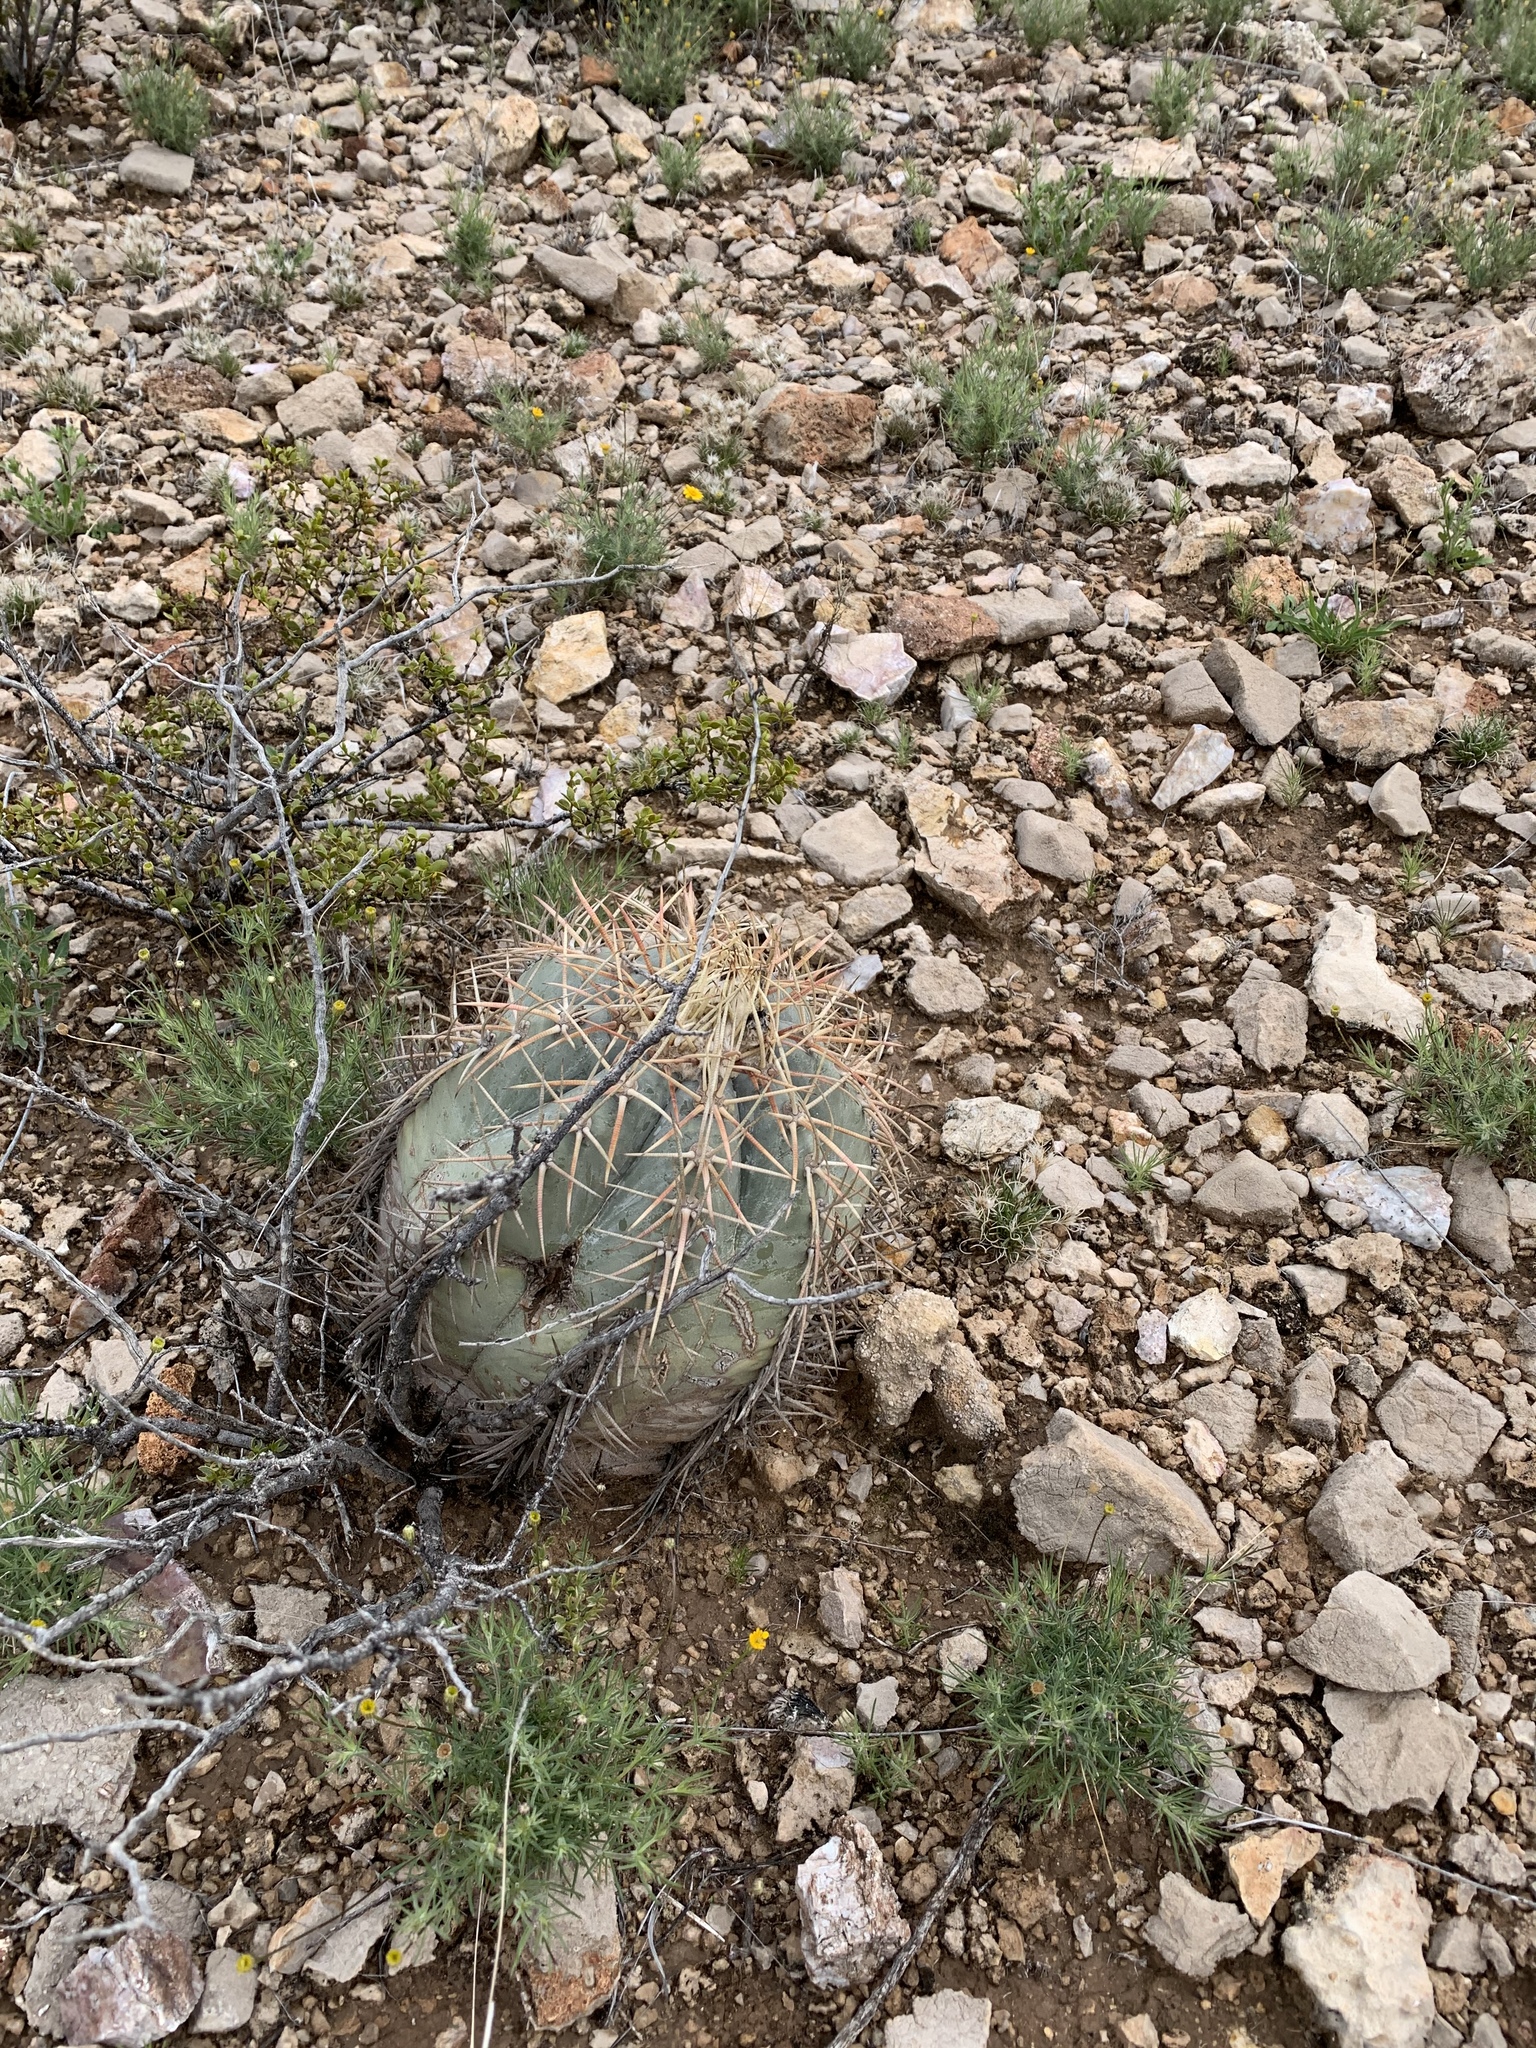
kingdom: Plantae
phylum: Tracheophyta
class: Magnoliopsida
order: Caryophyllales
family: Cactaceae
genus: Echinocactus
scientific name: Echinocactus horizonthalonius
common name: Devilshead
